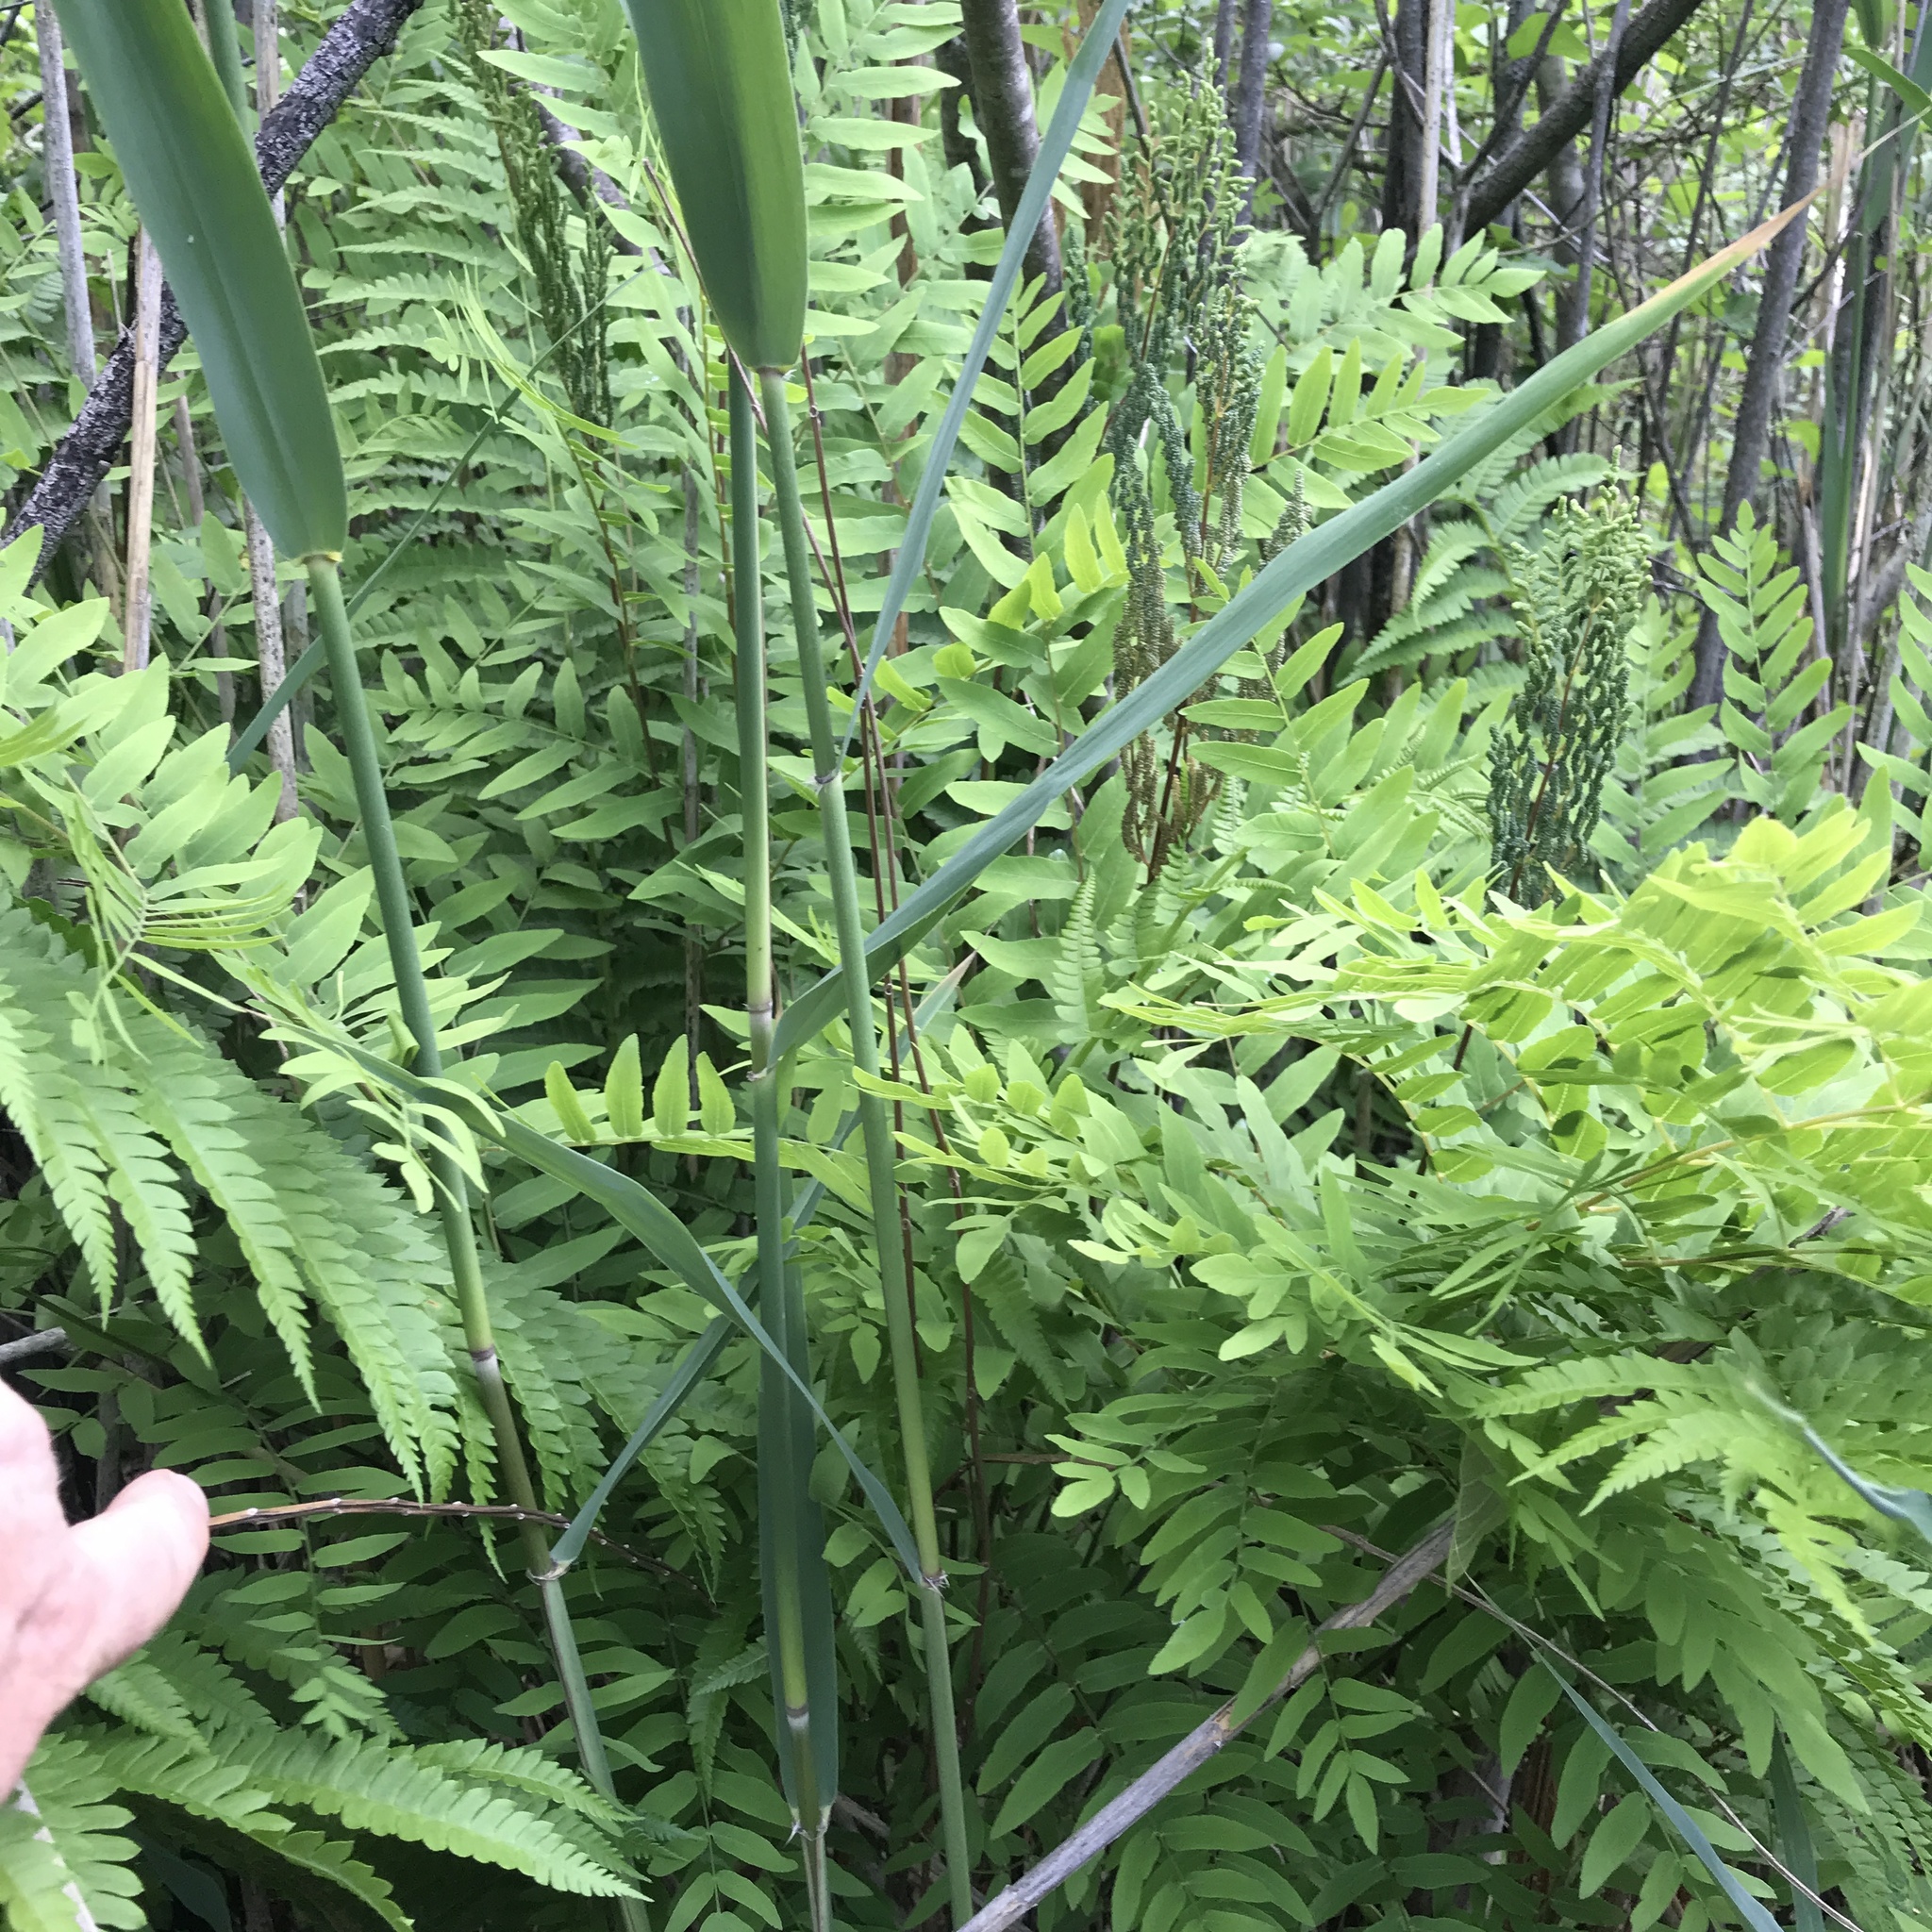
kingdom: Plantae
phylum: Tracheophyta
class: Polypodiopsida
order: Osmundales
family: Osmundaceae
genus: Osmunda
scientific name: Osmunda spectabilis
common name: American royal fern
